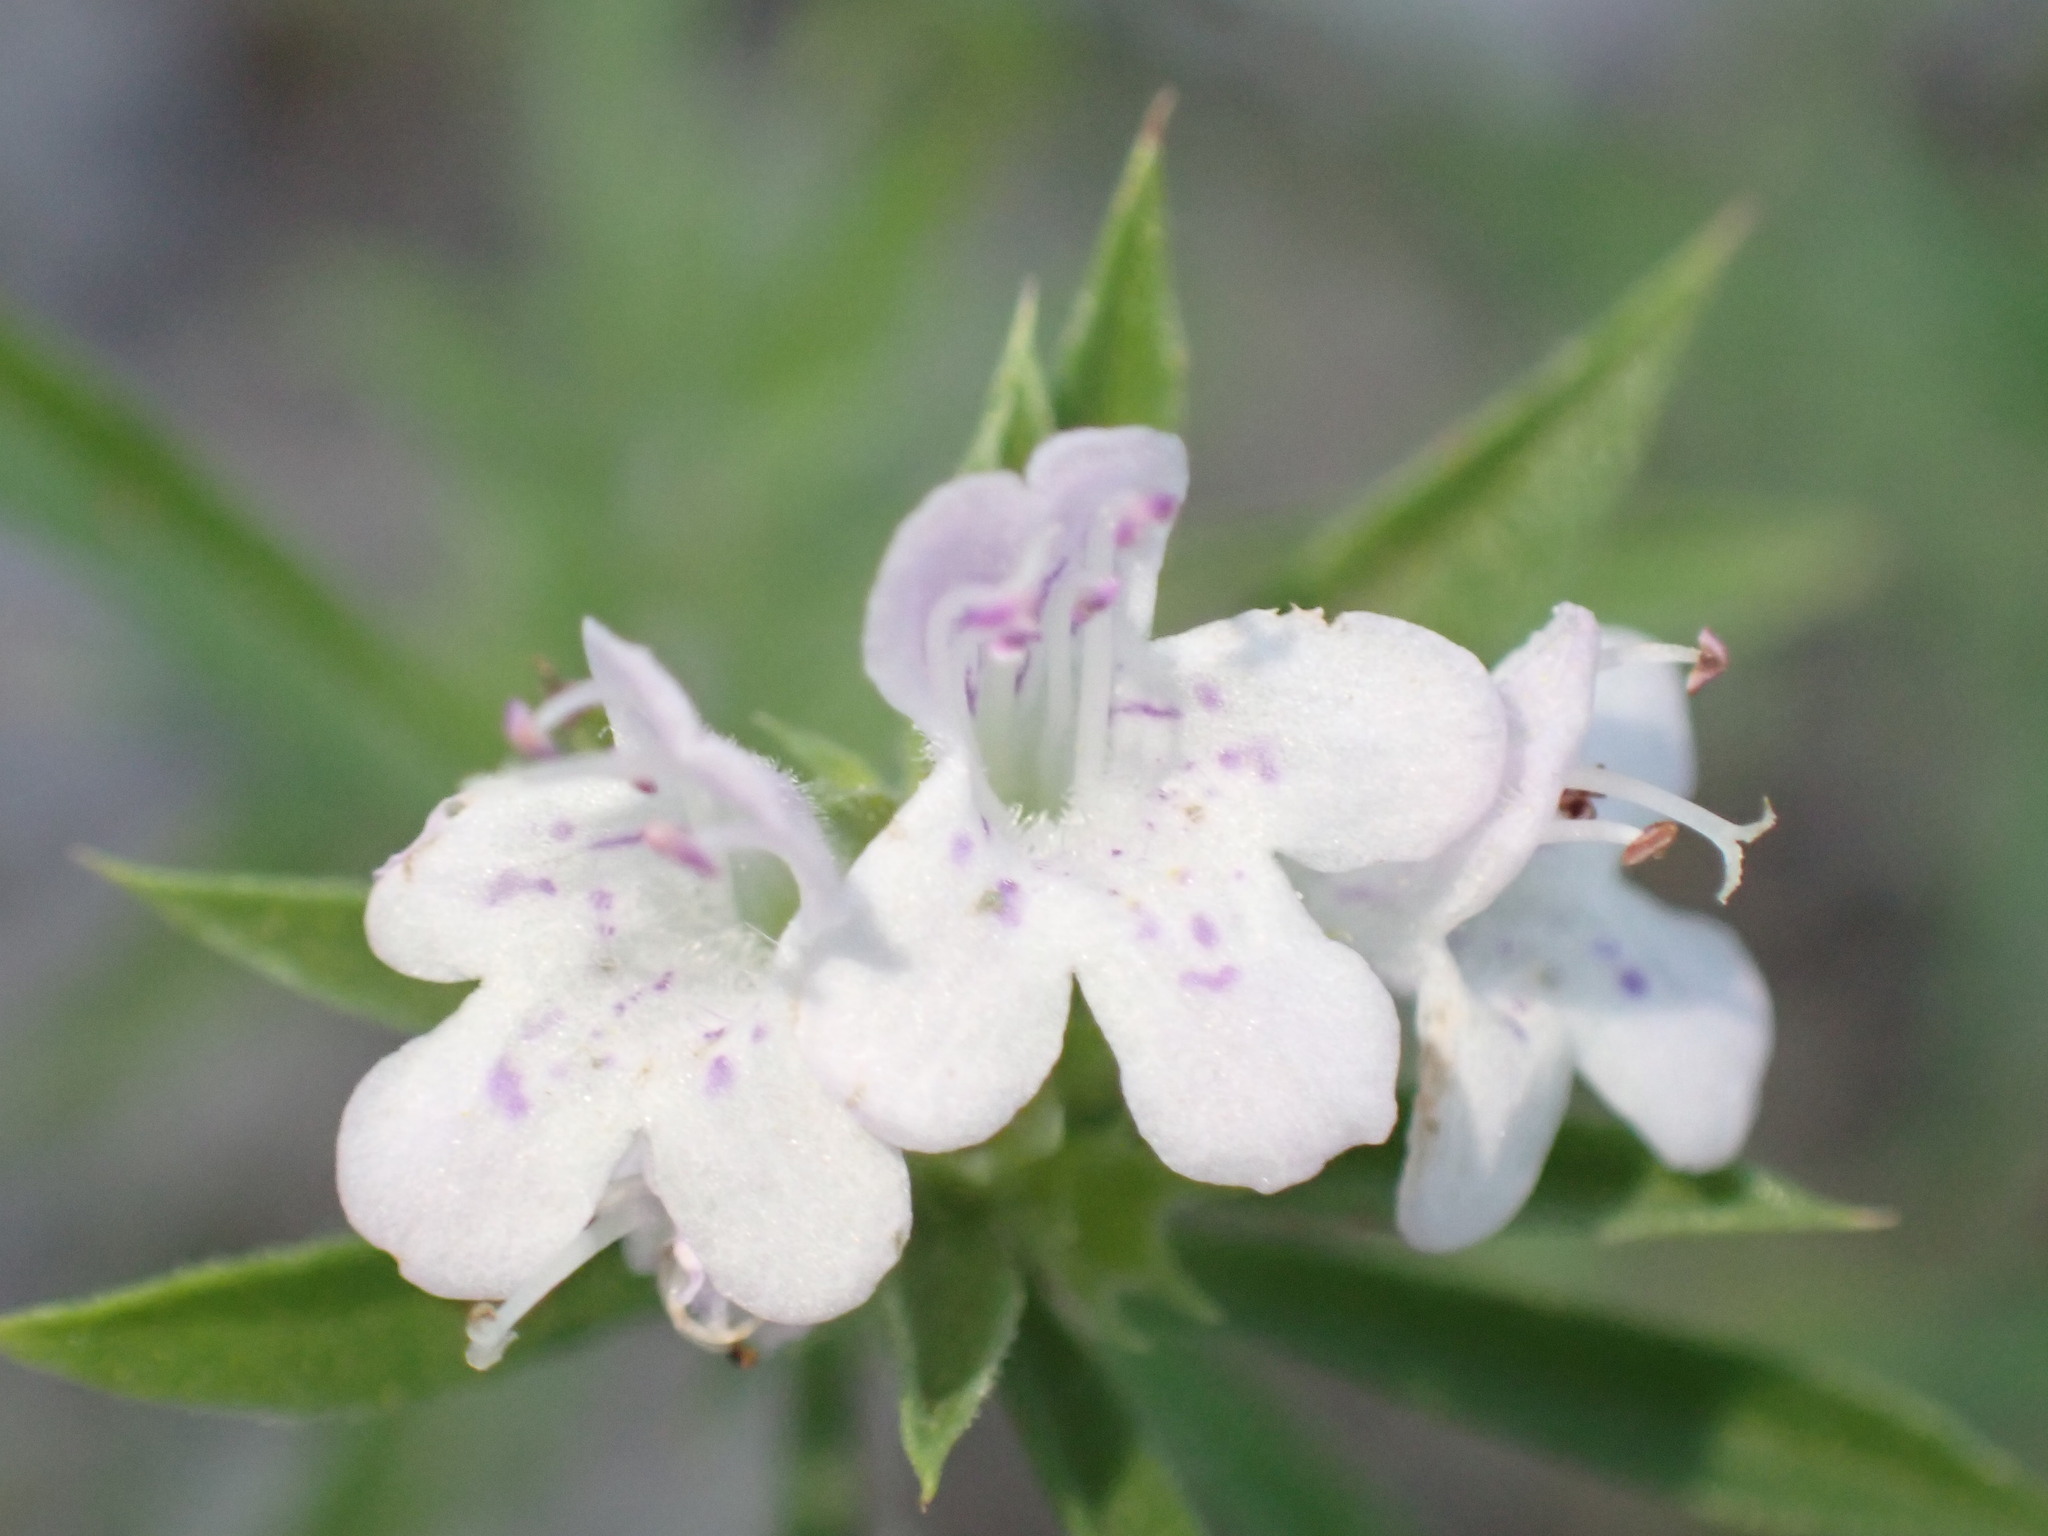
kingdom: Plantae
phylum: Tracheophyta
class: Magnoliopsida
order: Lamiales
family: Lamiaceae
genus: Satureja
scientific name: Satureja montana
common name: Winter savory
